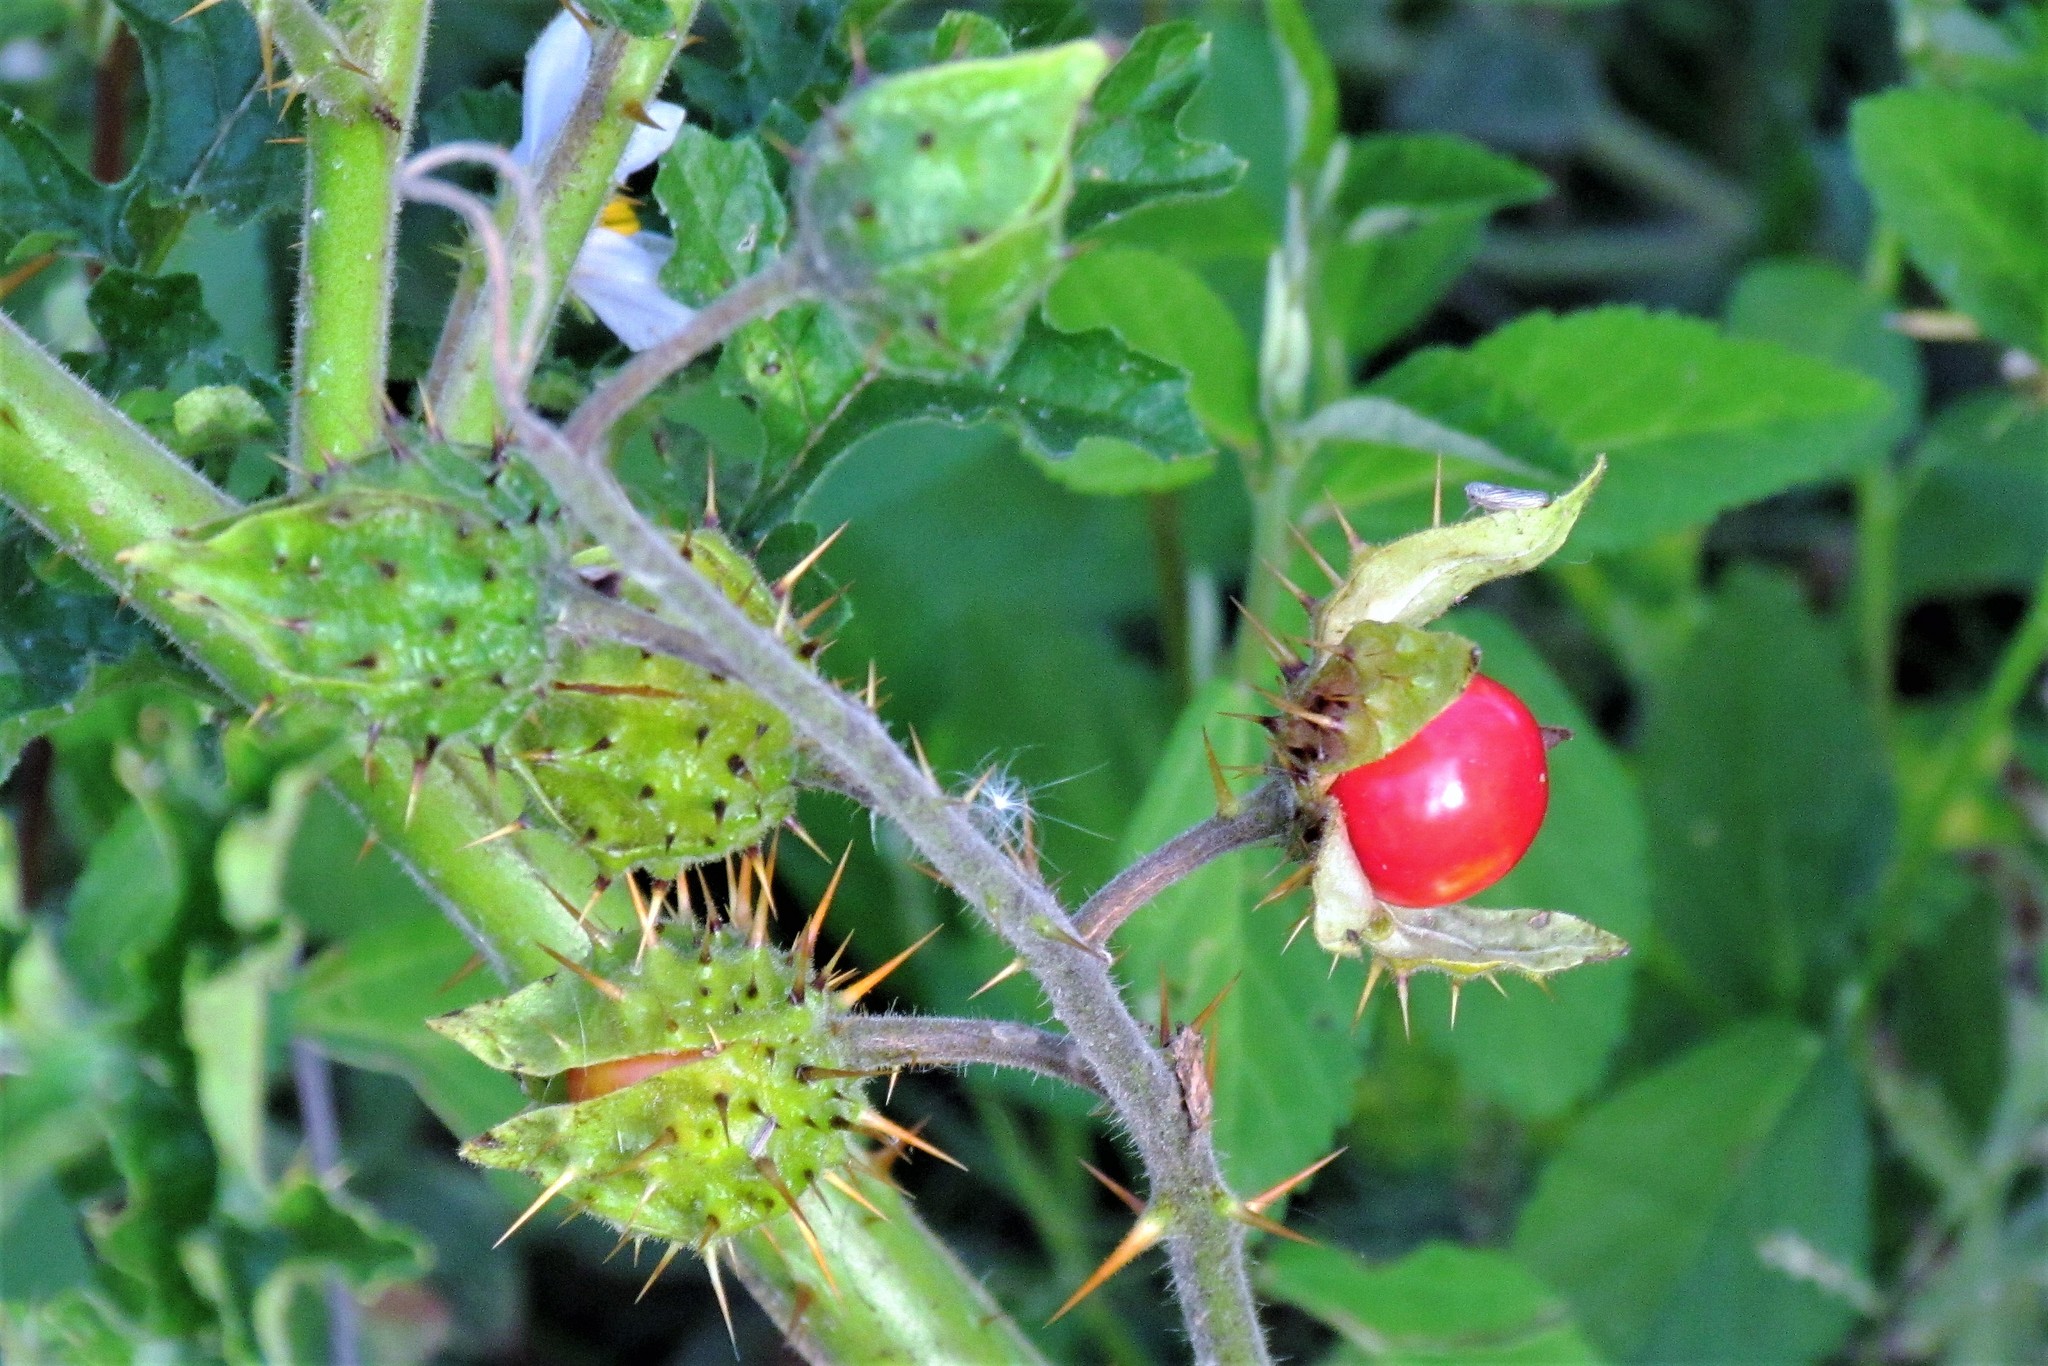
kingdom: Plantae
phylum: Tracheophyta
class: Magnoliopsida
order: Solanales
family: Solanaceae
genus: Solanum
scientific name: Solanum sisymbriifolium
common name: Red buffalo-bur
